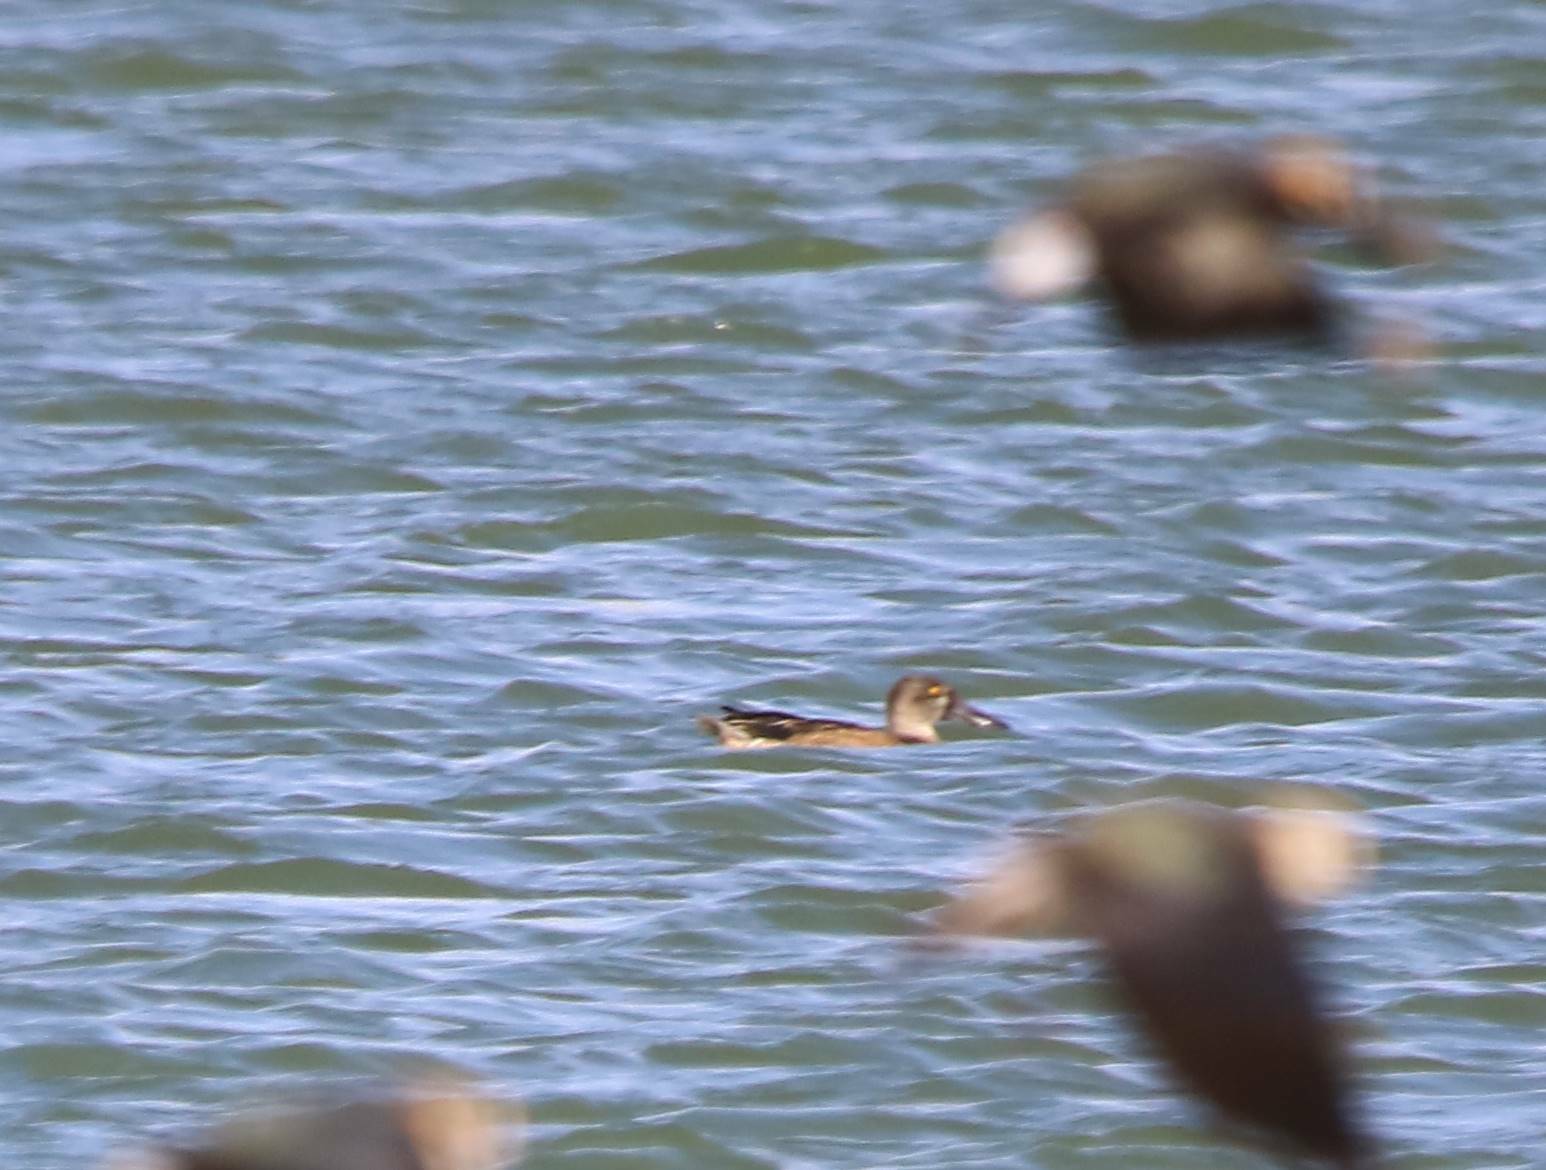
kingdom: Animalia
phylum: Chordata
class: Aves
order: Anseriformes
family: Anatidae
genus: Spatula
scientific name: Spatula clypeata
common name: Northern shoveler
